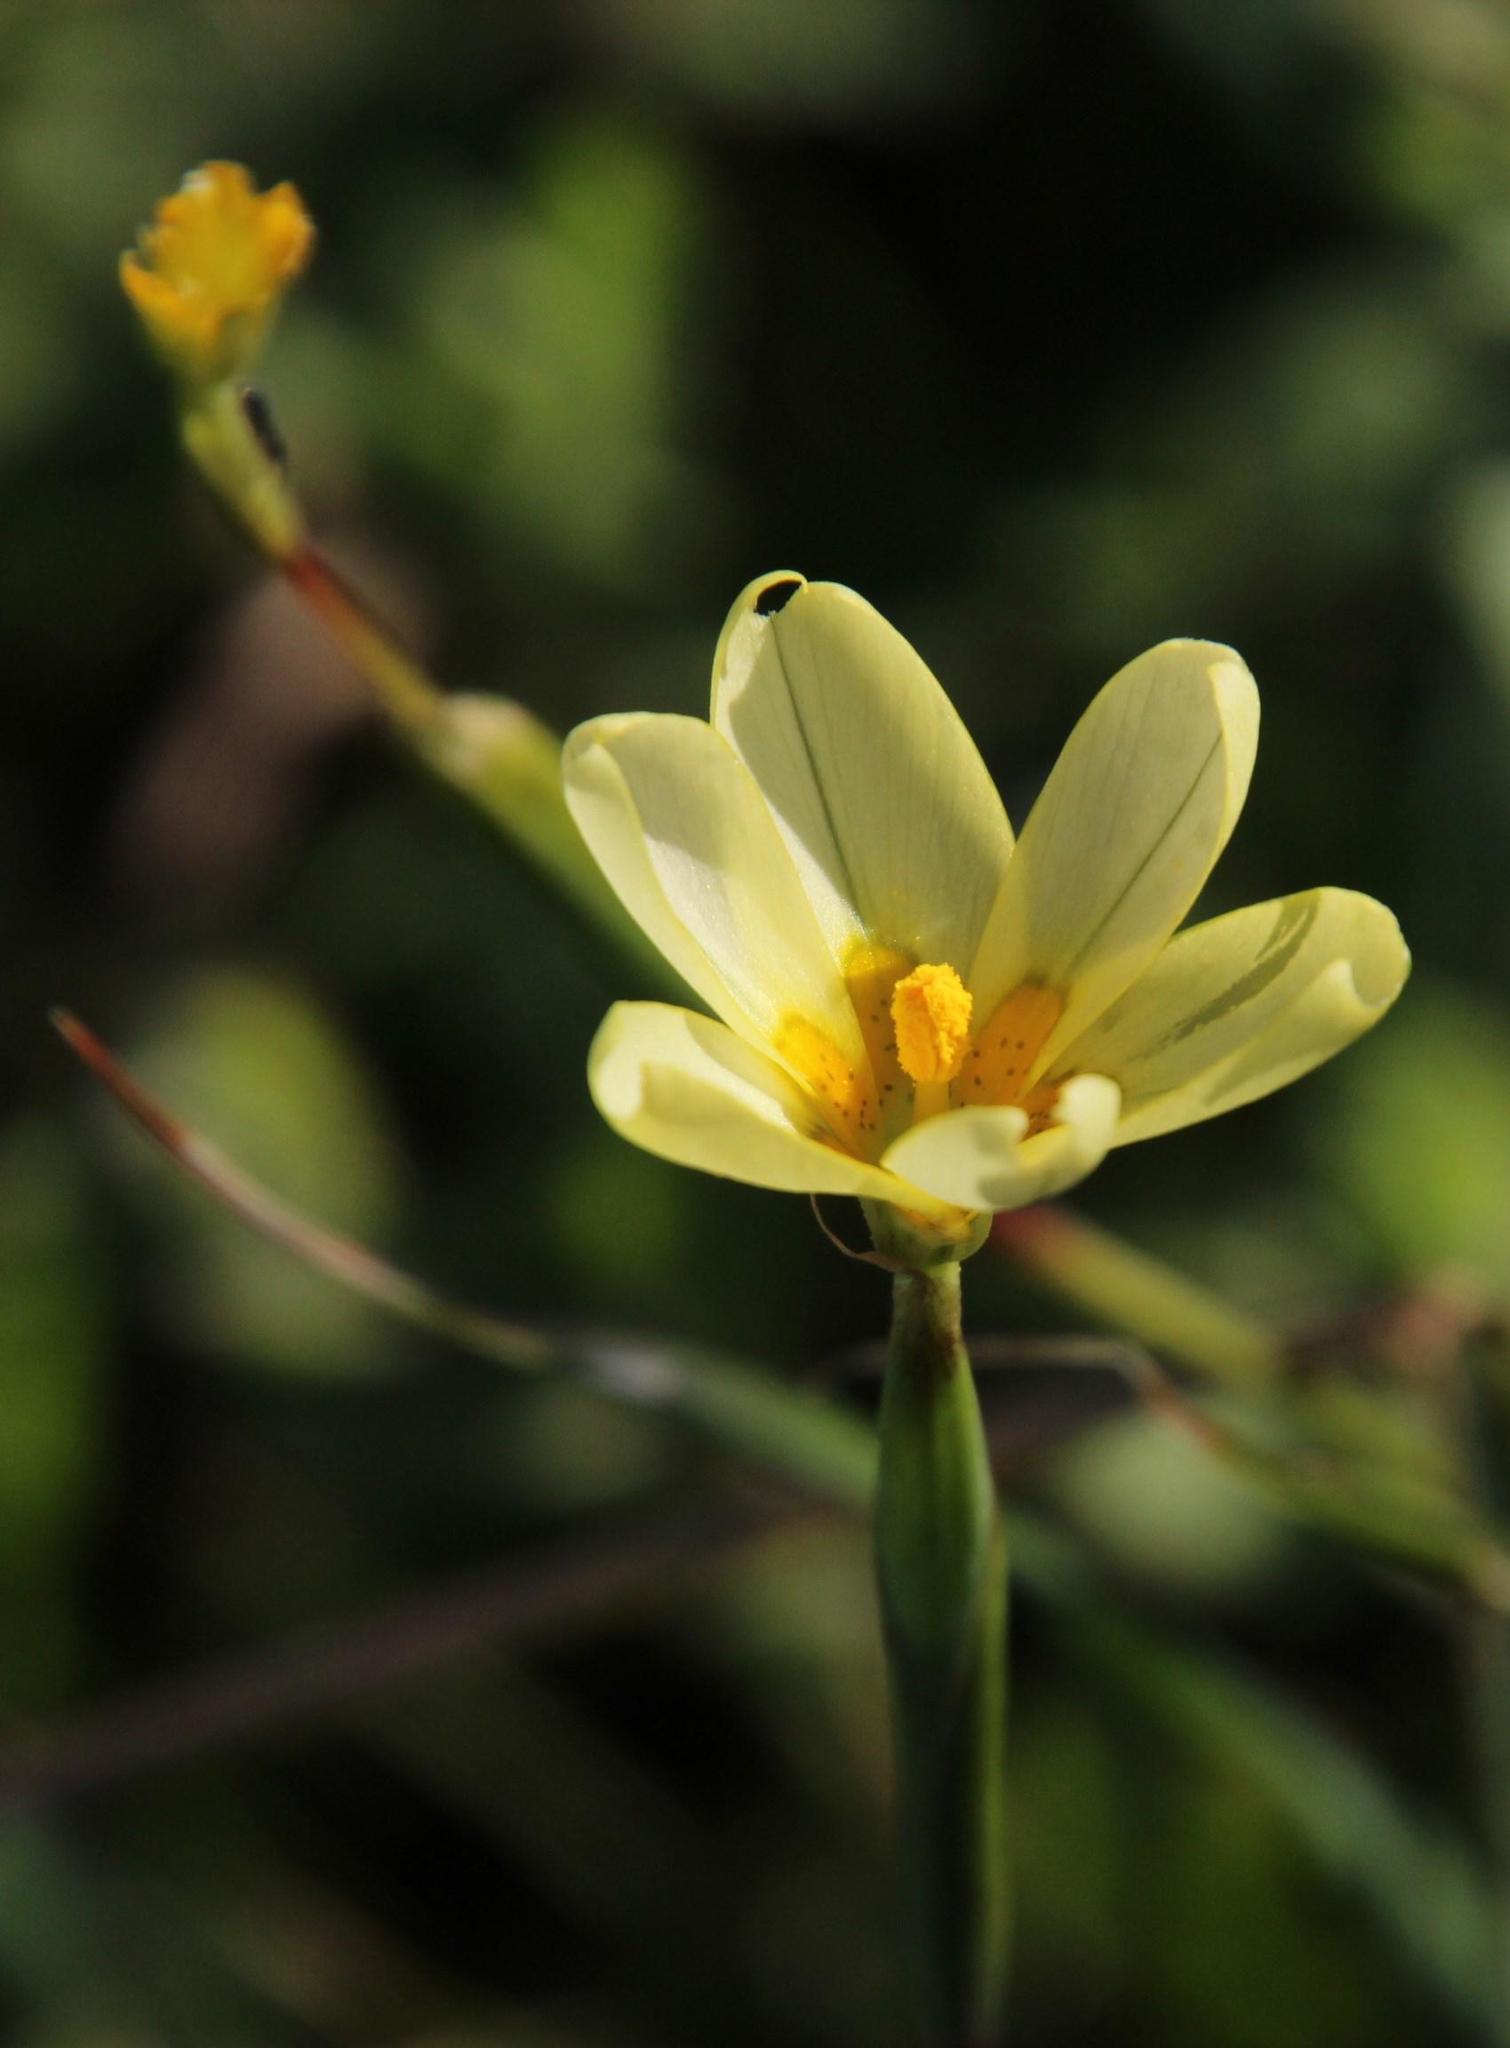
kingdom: Plantae
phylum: Tracheophyta
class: Liliopsida
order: Asparagales
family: Iridaceae
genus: Moraea
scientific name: Moraea miniata
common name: Two-leaf cape-tulip
